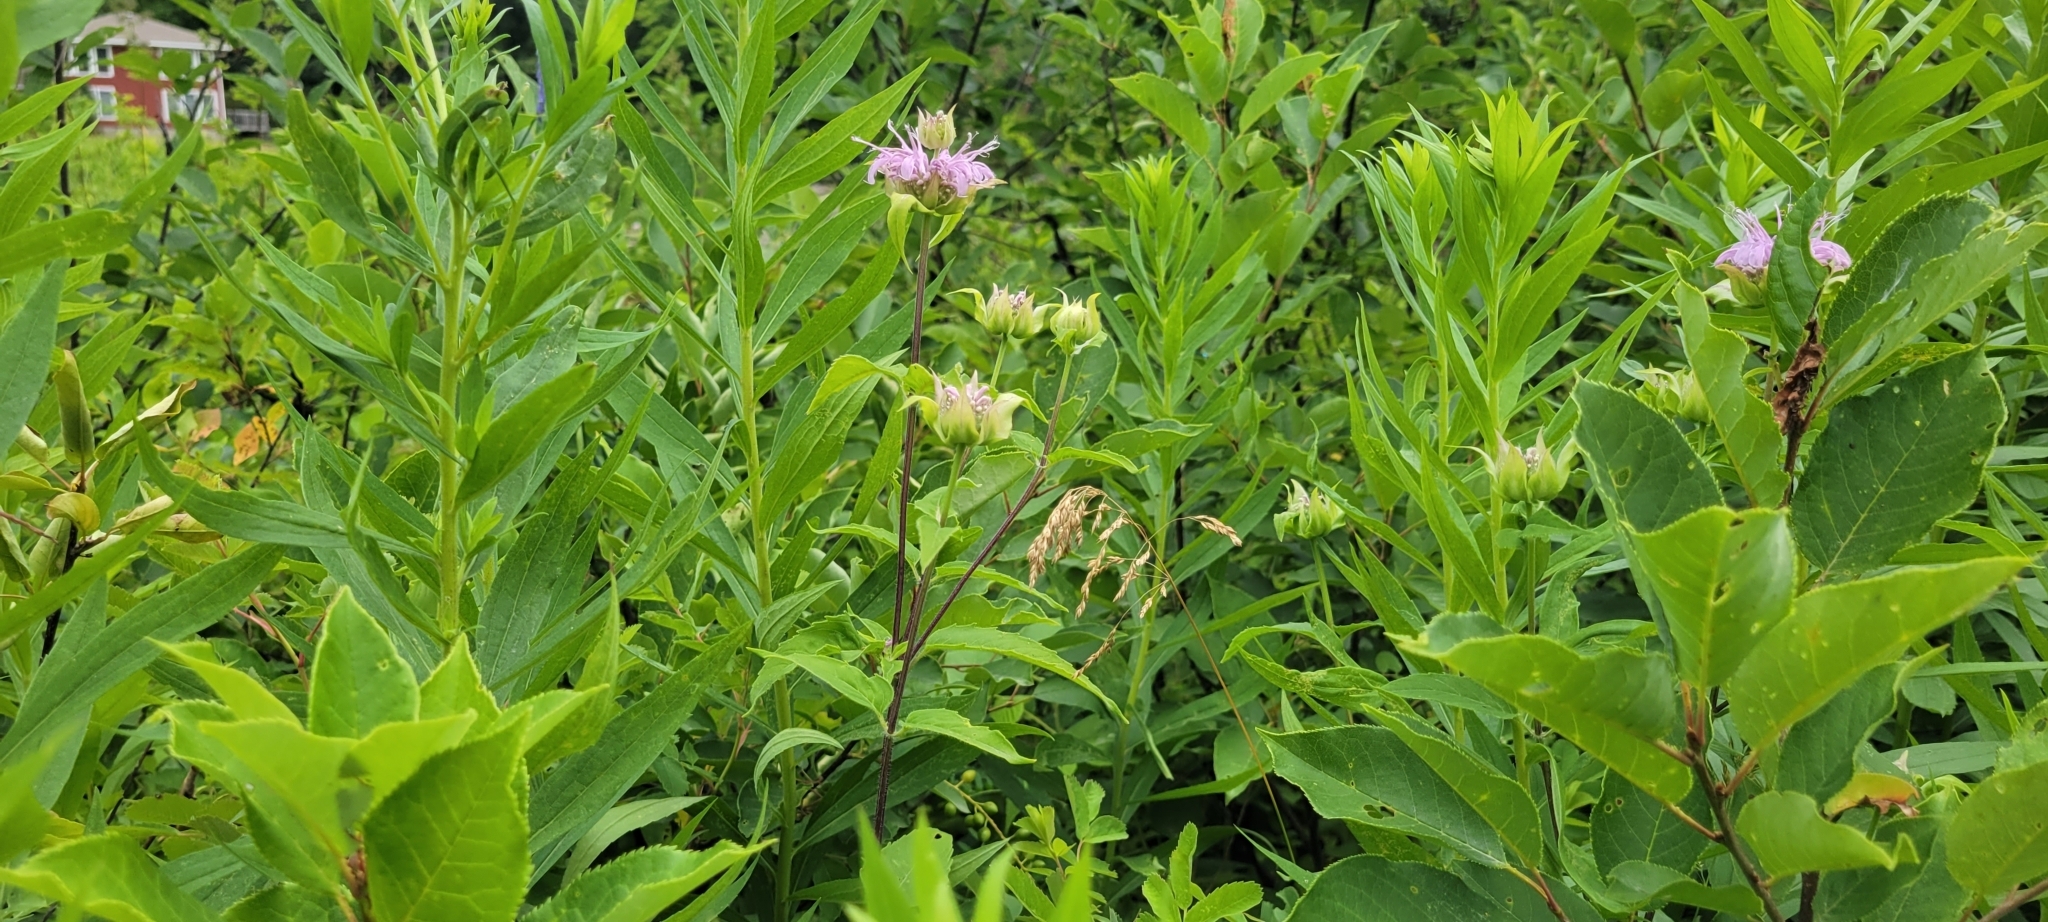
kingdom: Plantae
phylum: Tracheophyta
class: Magnoliopsida
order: Lamiales
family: Lamiaceae
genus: Monarda
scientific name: Monarda fistulosa
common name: Purple beebalm
